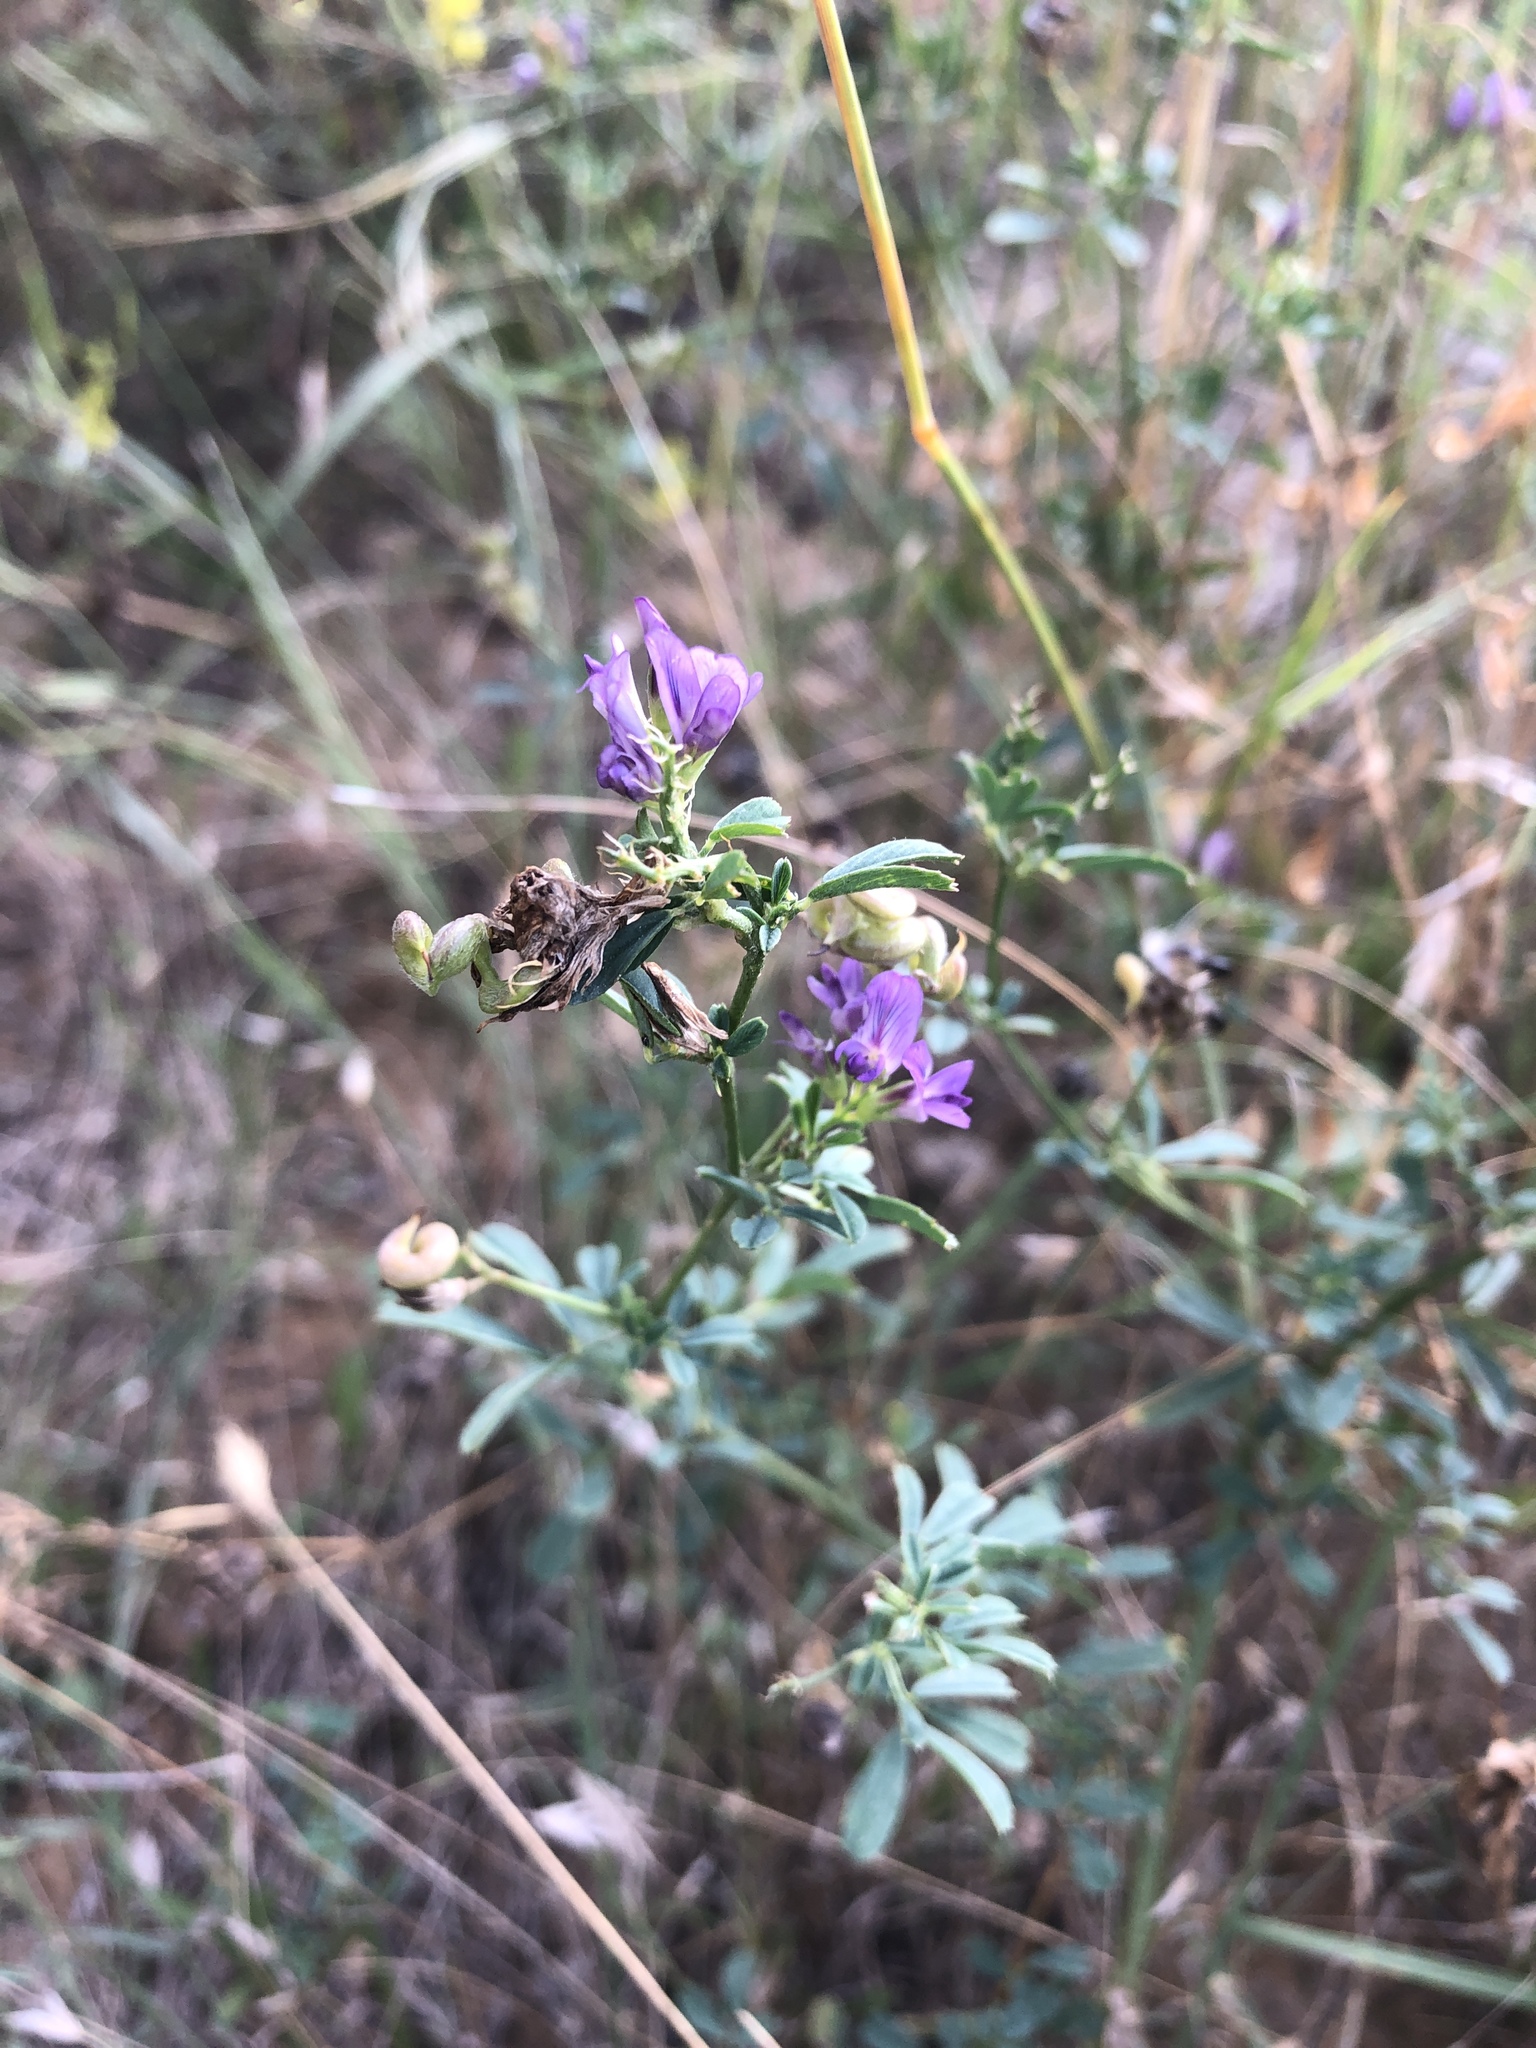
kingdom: Plantae
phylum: Tracheophyta
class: Magnoliopsida
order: Fabales
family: Fabaceae
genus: Medicago
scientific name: Medicago sativa
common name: Alfalfa
